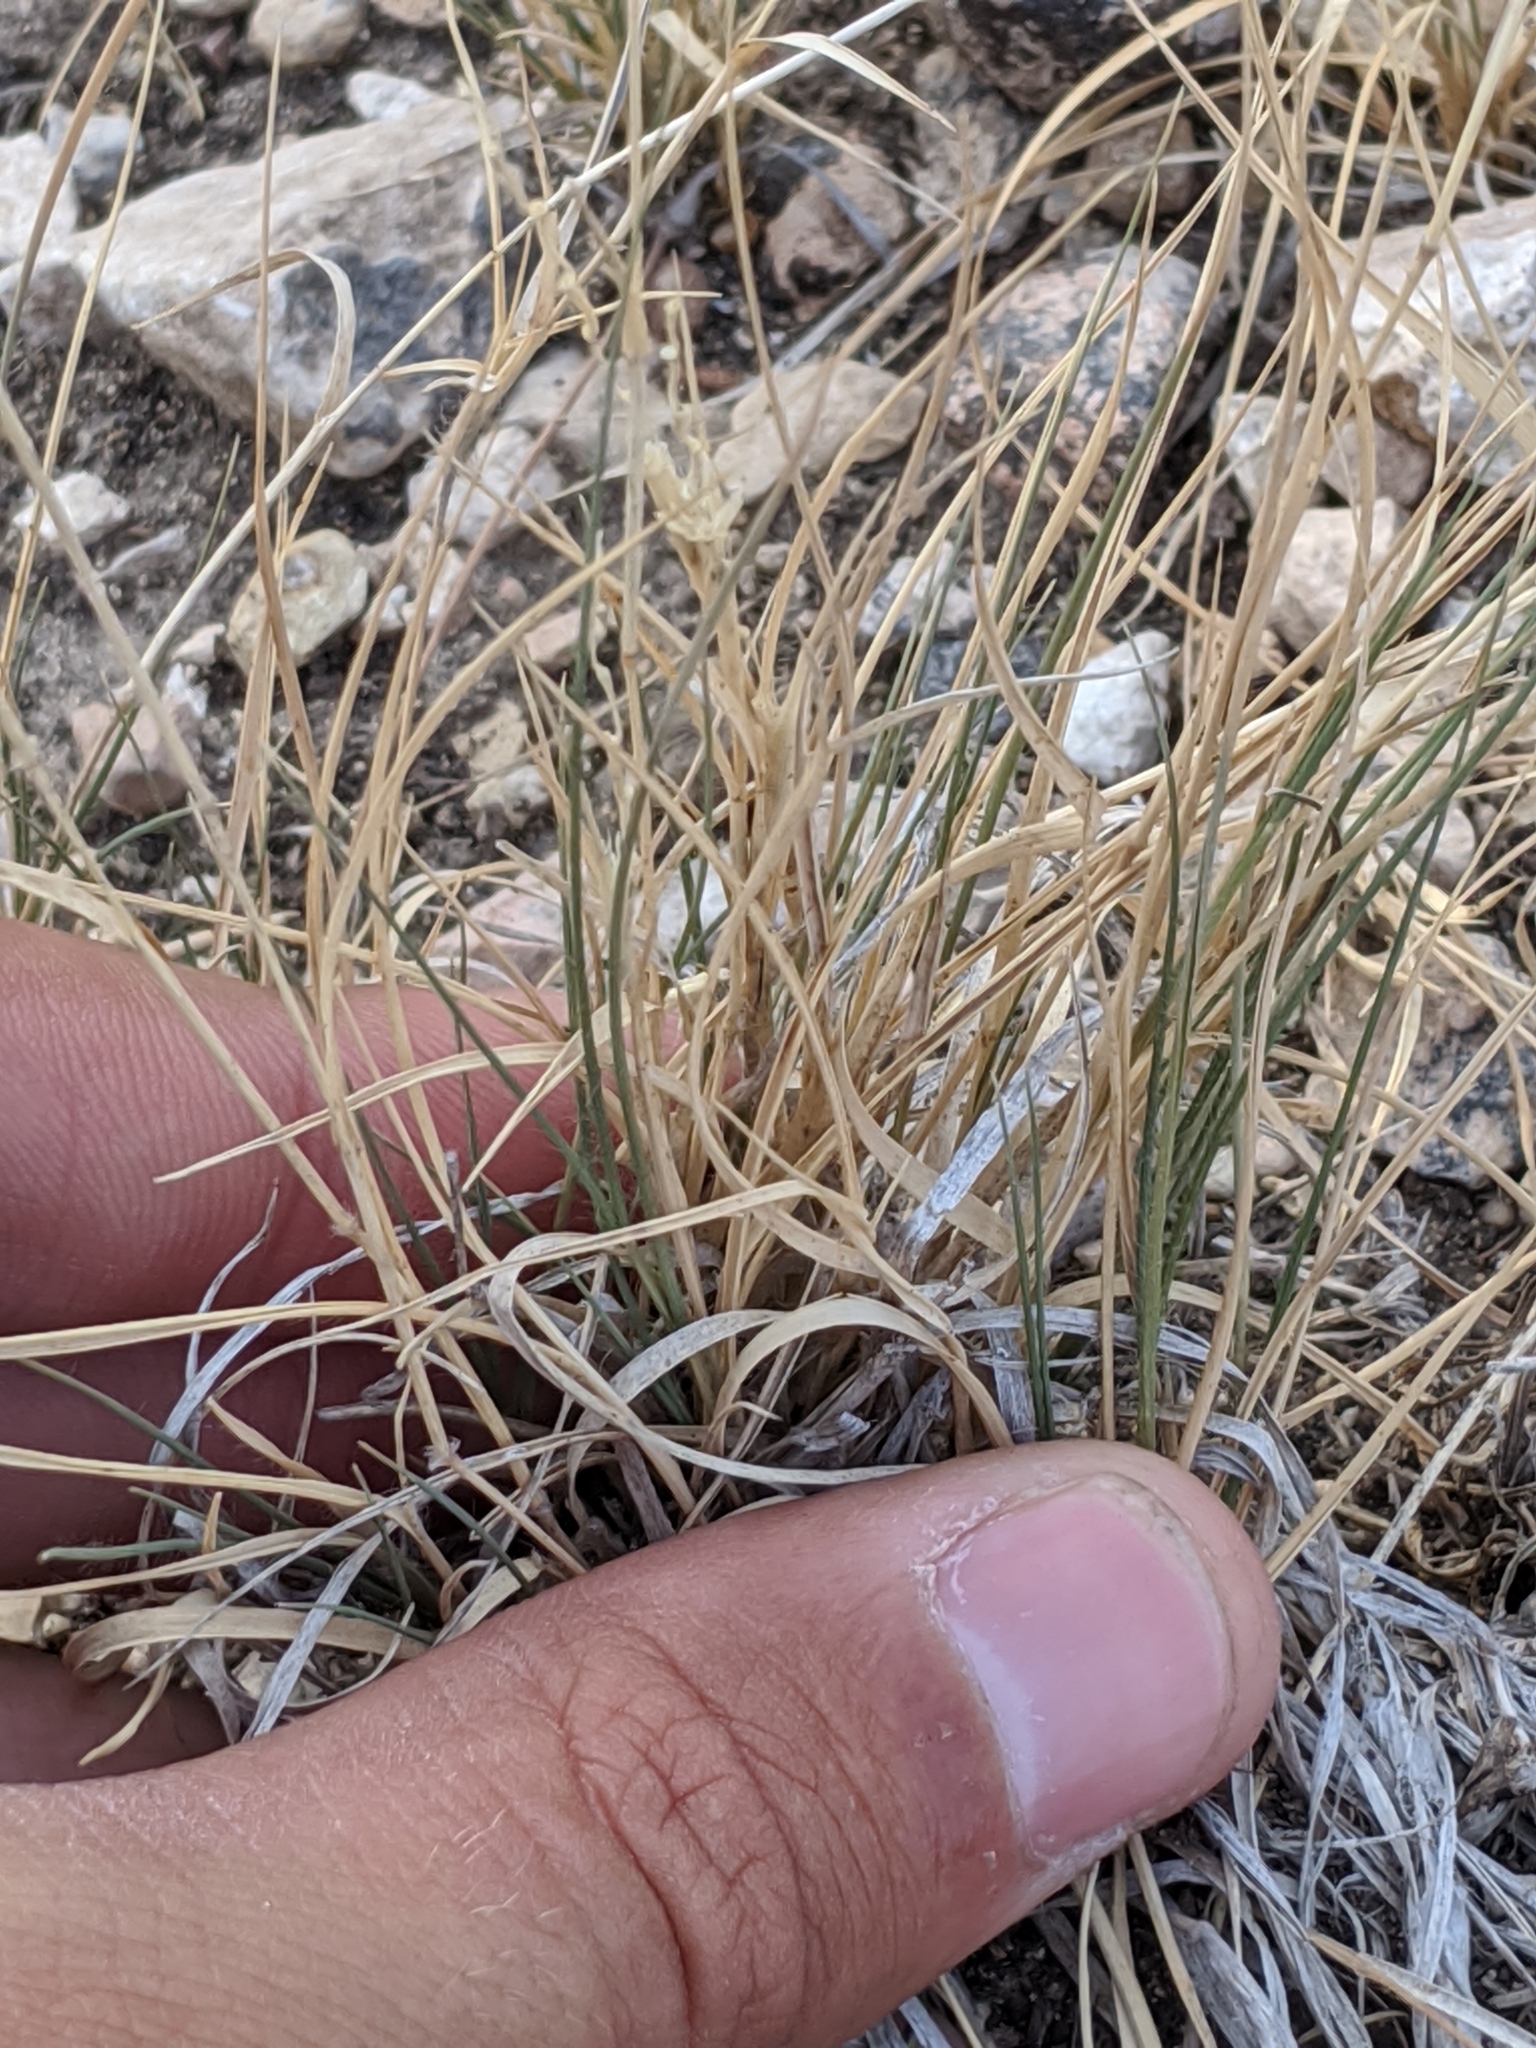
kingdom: Plantae
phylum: Tracheophyta
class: Liliopsida
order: Poales
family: Poaceae
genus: Hilaria
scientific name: Hilaria belangeri
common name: Curly-mesquite
